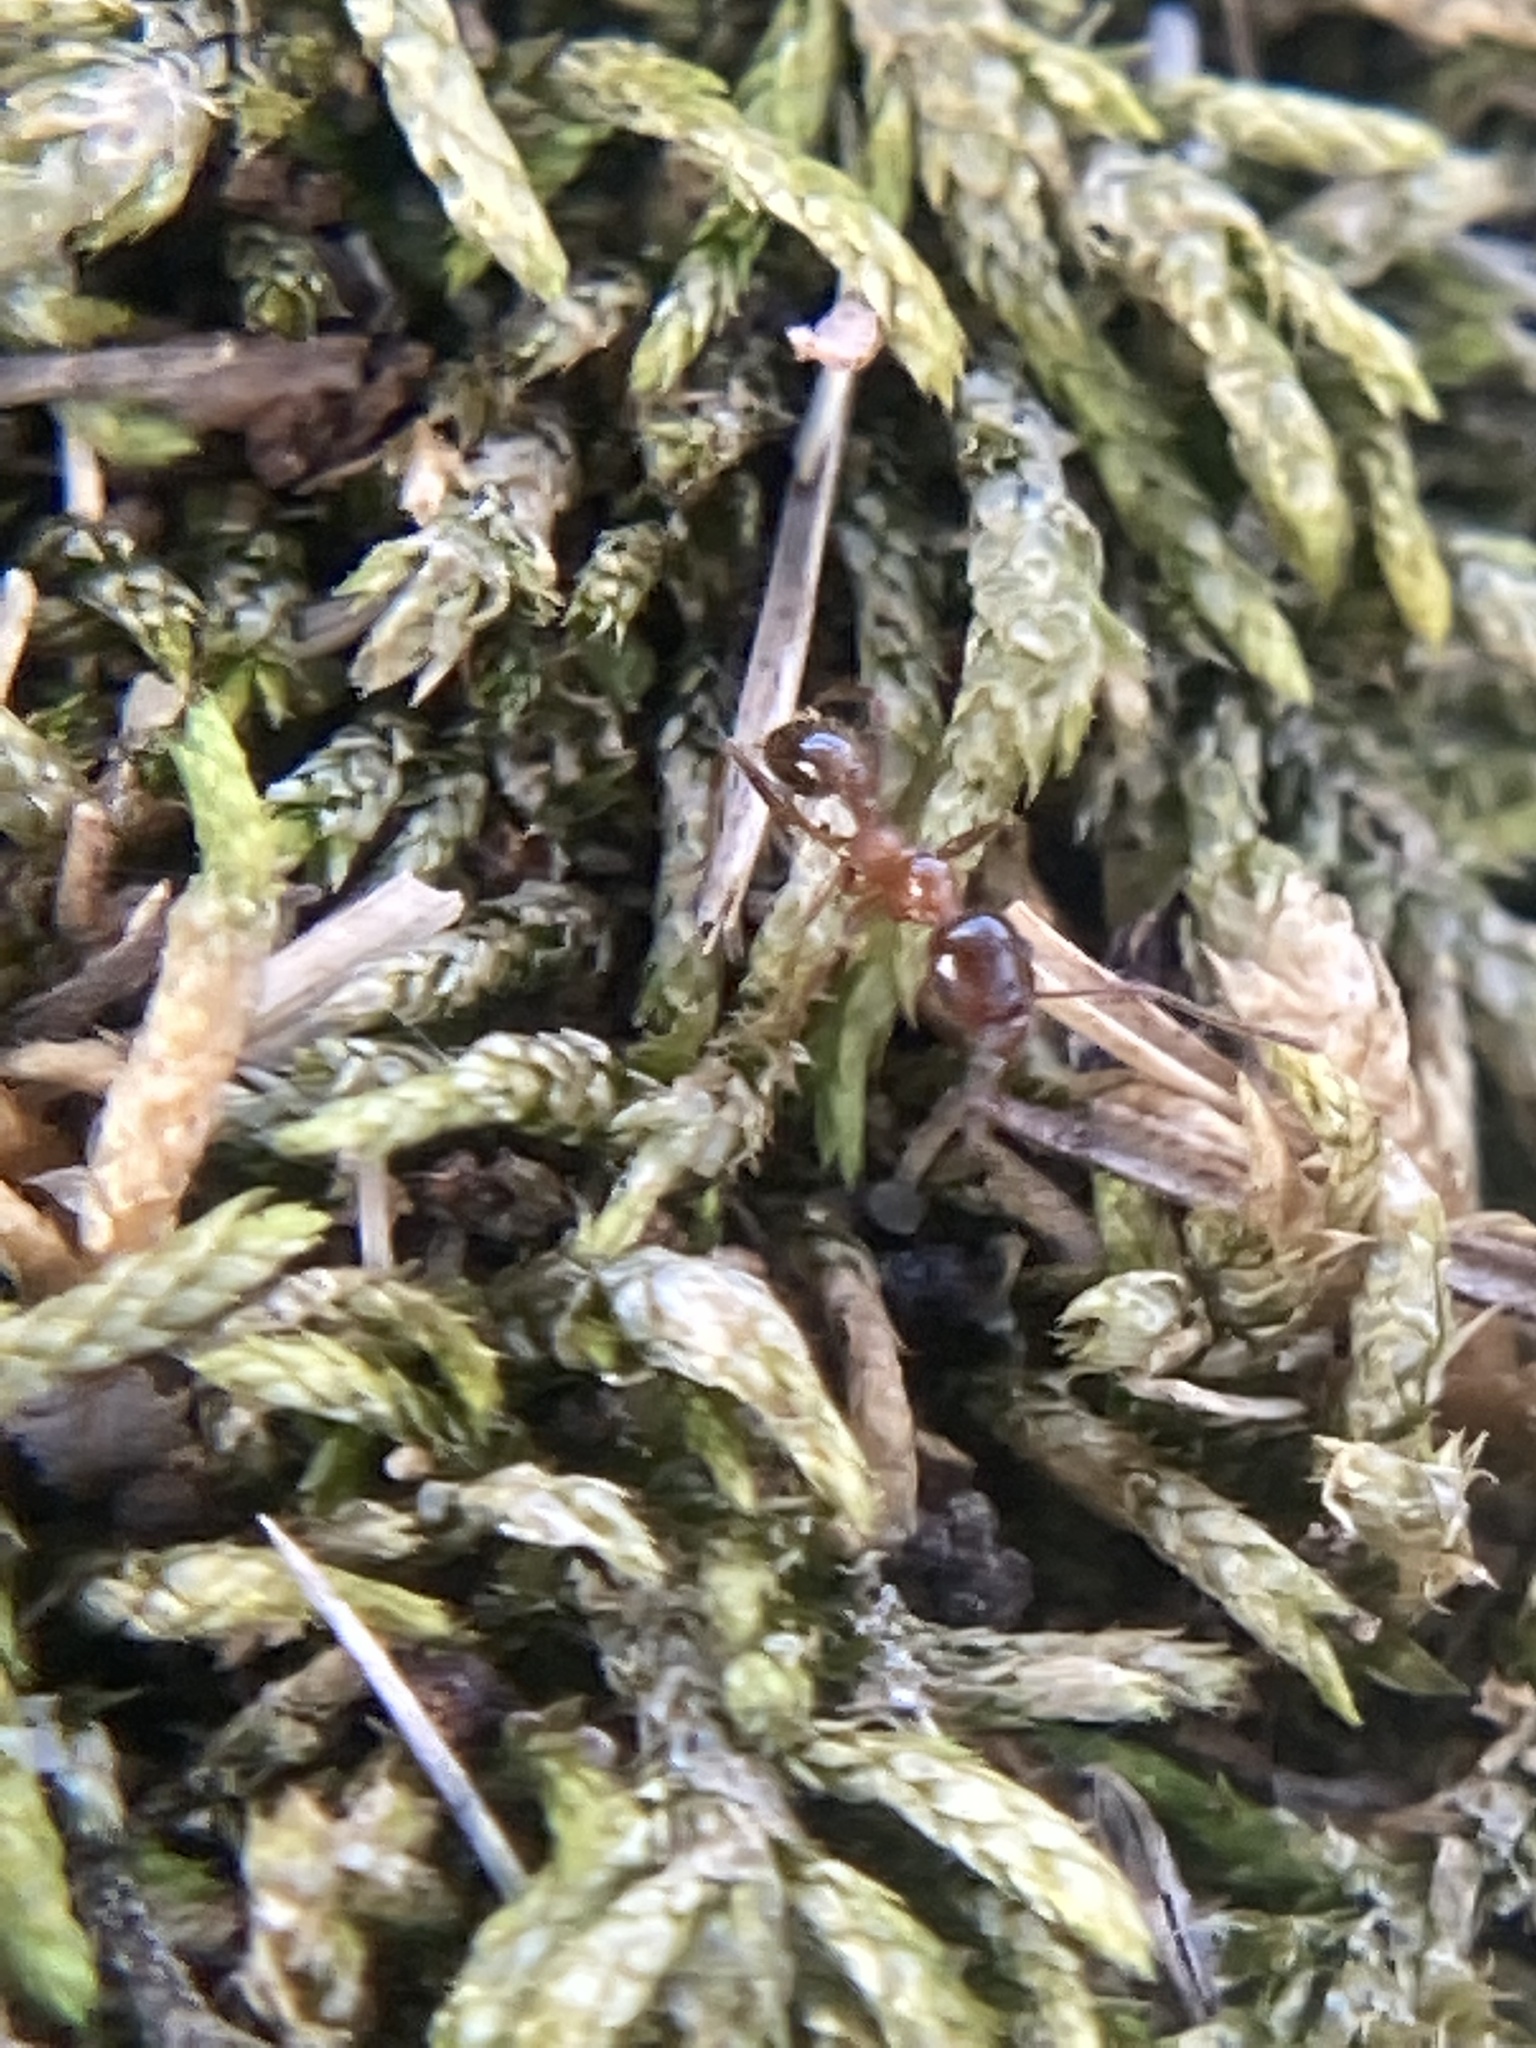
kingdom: Animalia
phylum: Arthropoda
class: Insecta
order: Hymenoptera
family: Formicidae
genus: Pheidole
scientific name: Pheidole dentata
